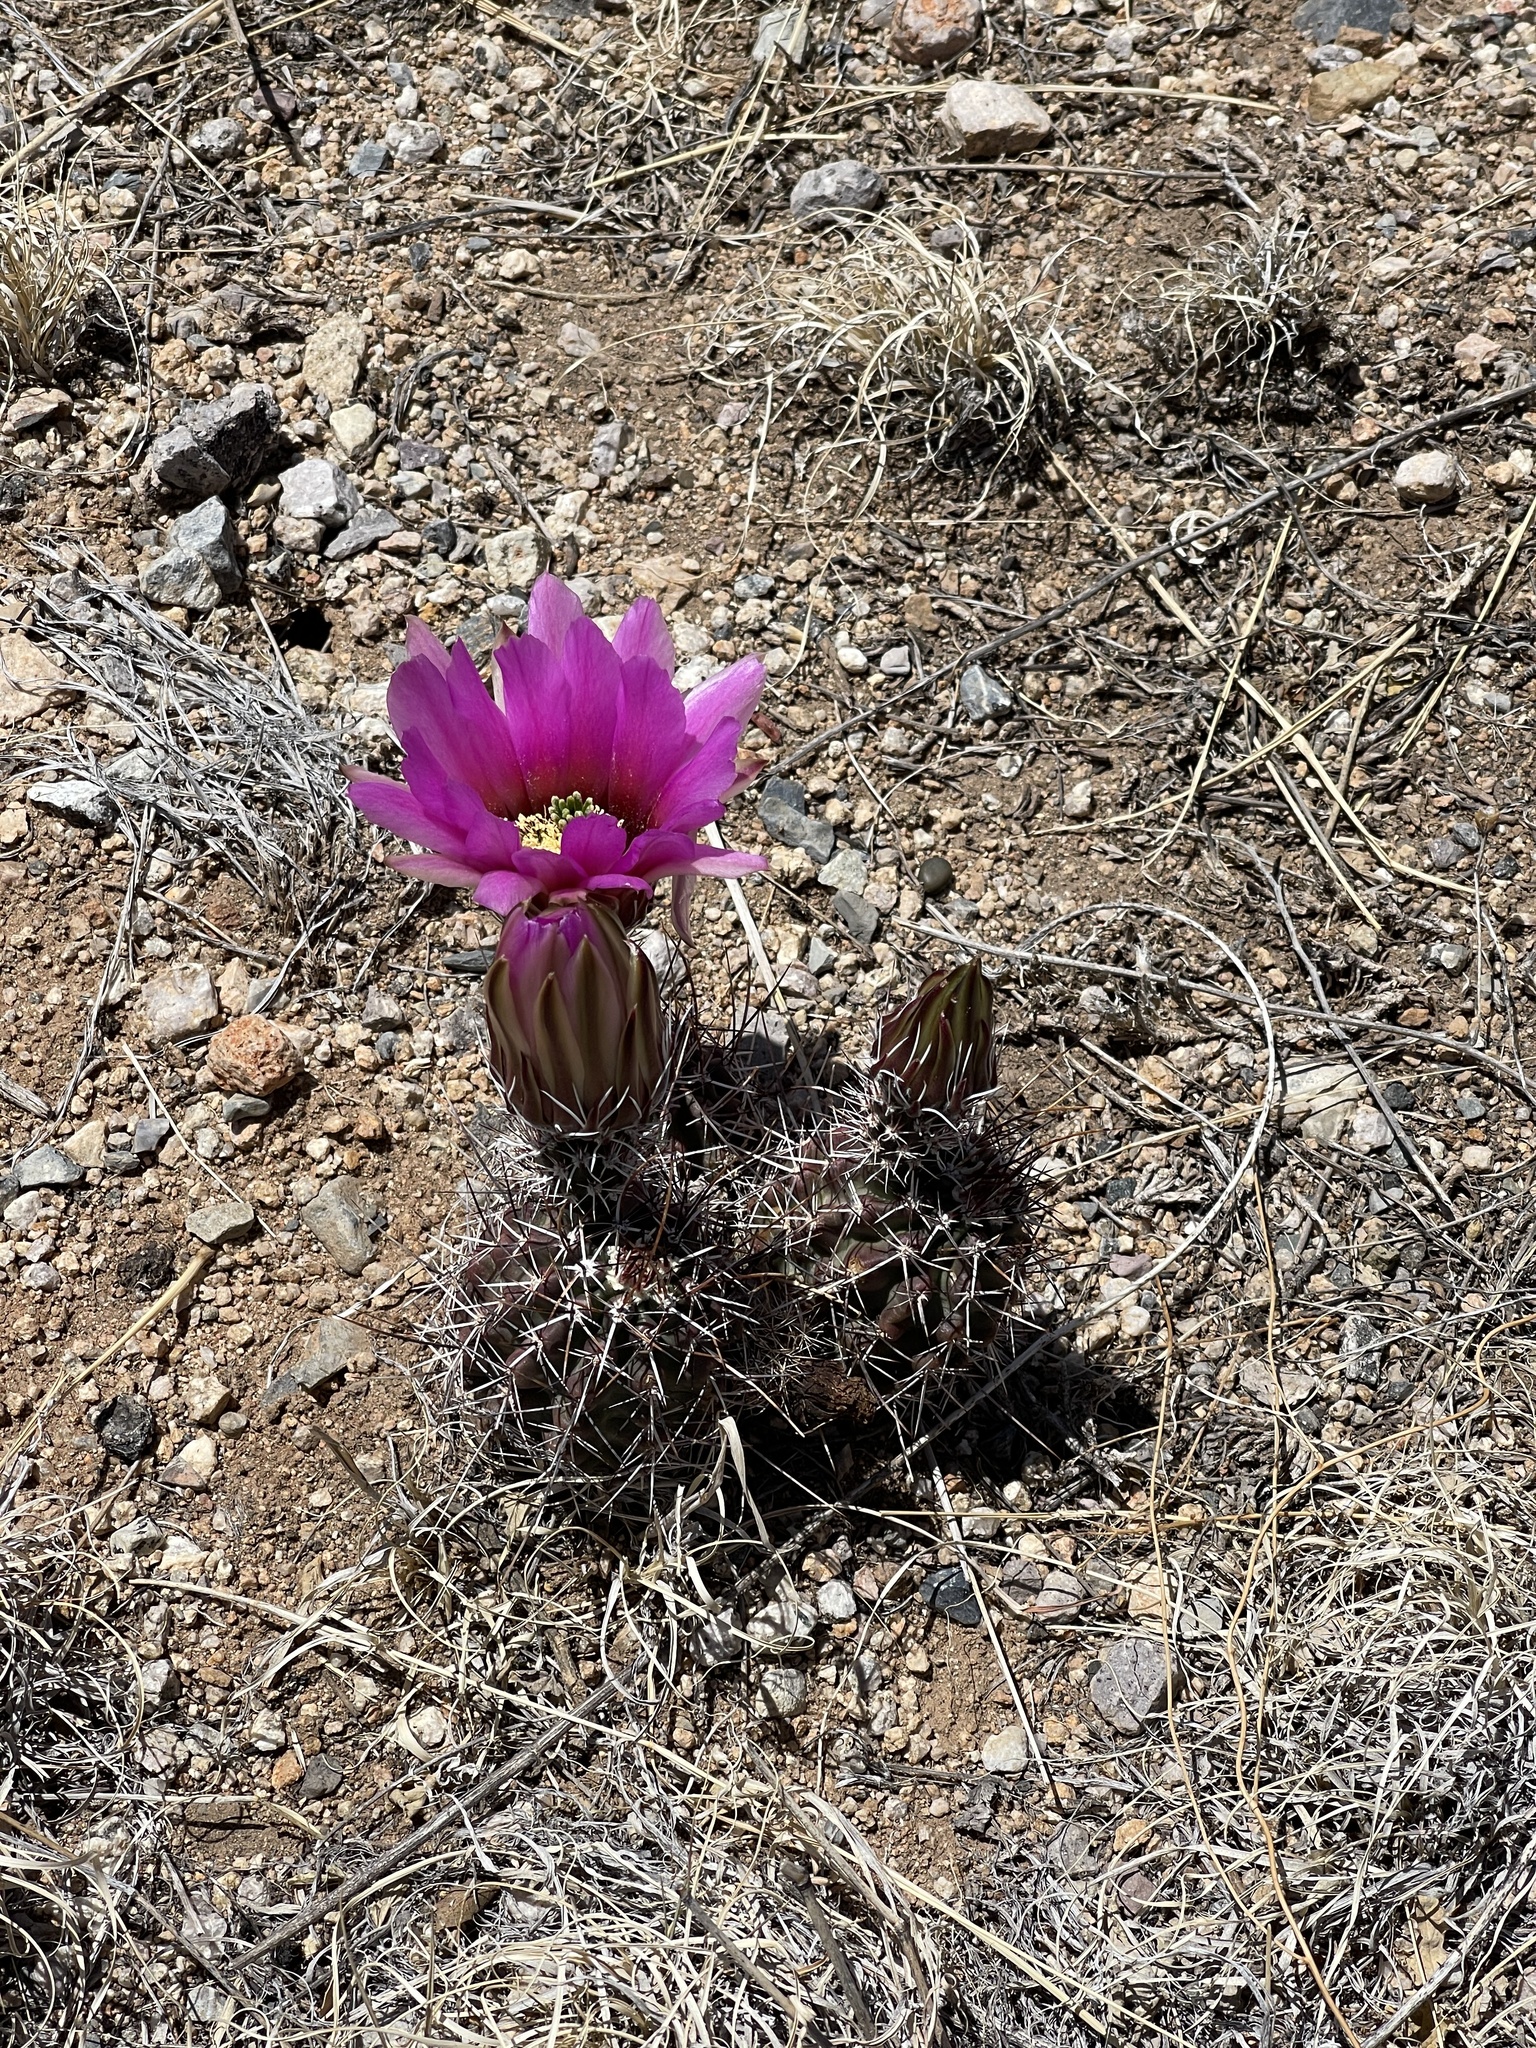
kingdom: Plantae
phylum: Tracheophyta
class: Magnoliopsida
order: Caryophyllales
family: Cactaceae
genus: Echinocereus
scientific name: Echinocereus fendleri
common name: Fendler's hedgehog cactus
